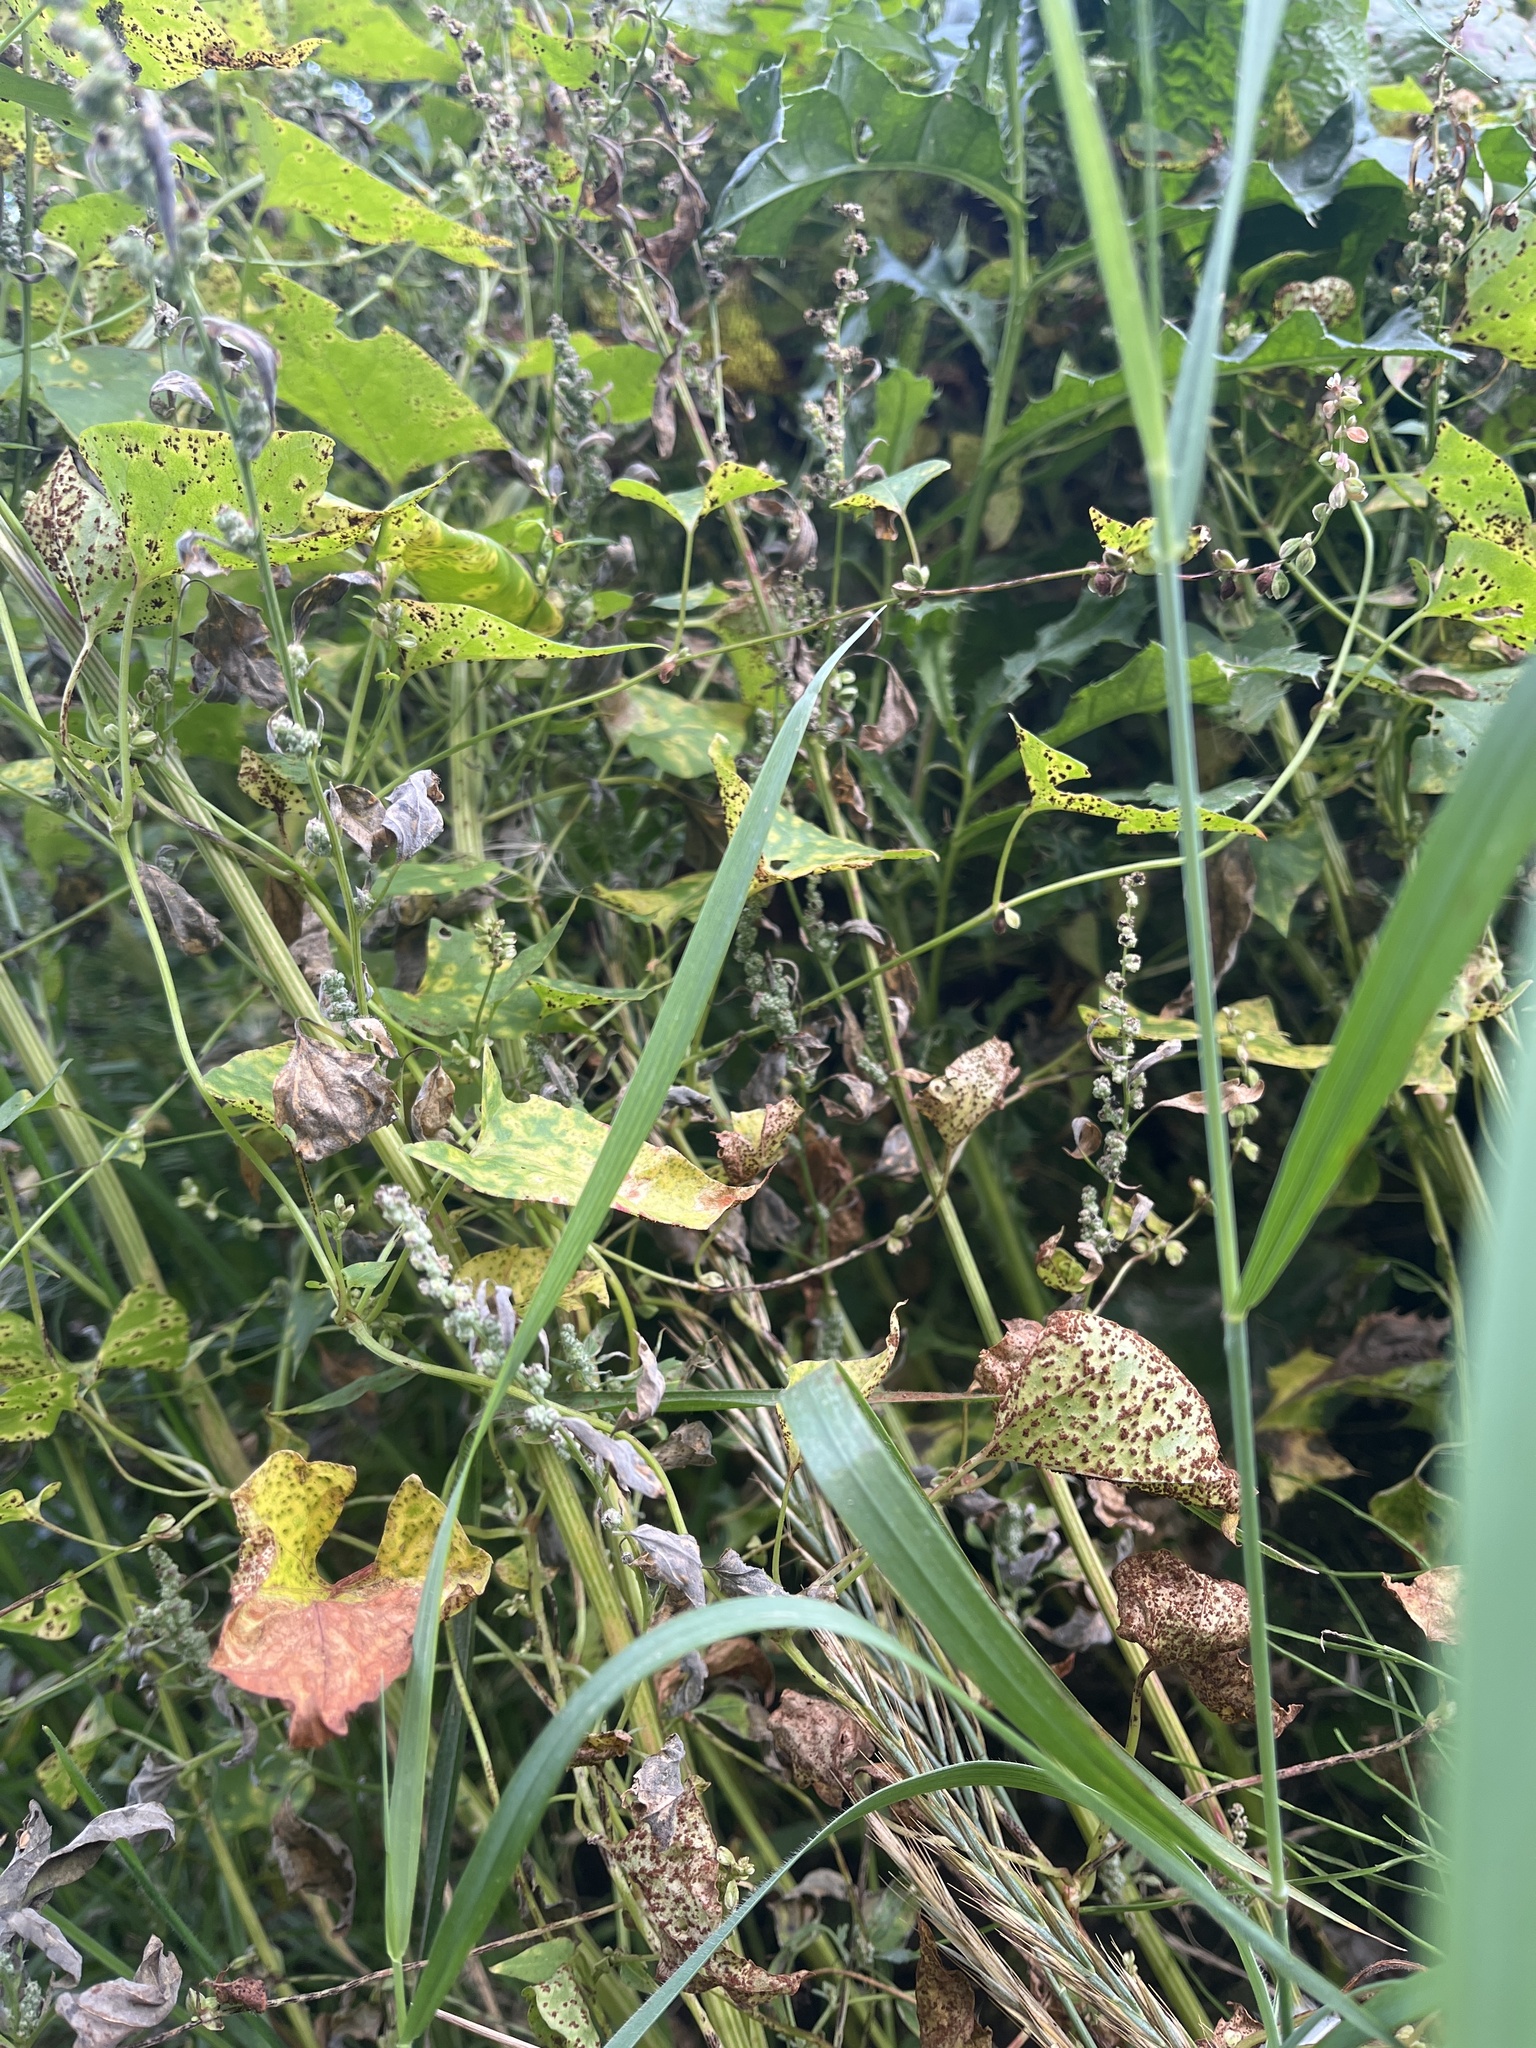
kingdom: Fungi
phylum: Basidiomycota
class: Pucciniomycetes
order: Pucciniales
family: Pucciniaceae
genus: Puccinia
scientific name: Puccinia polygoni
